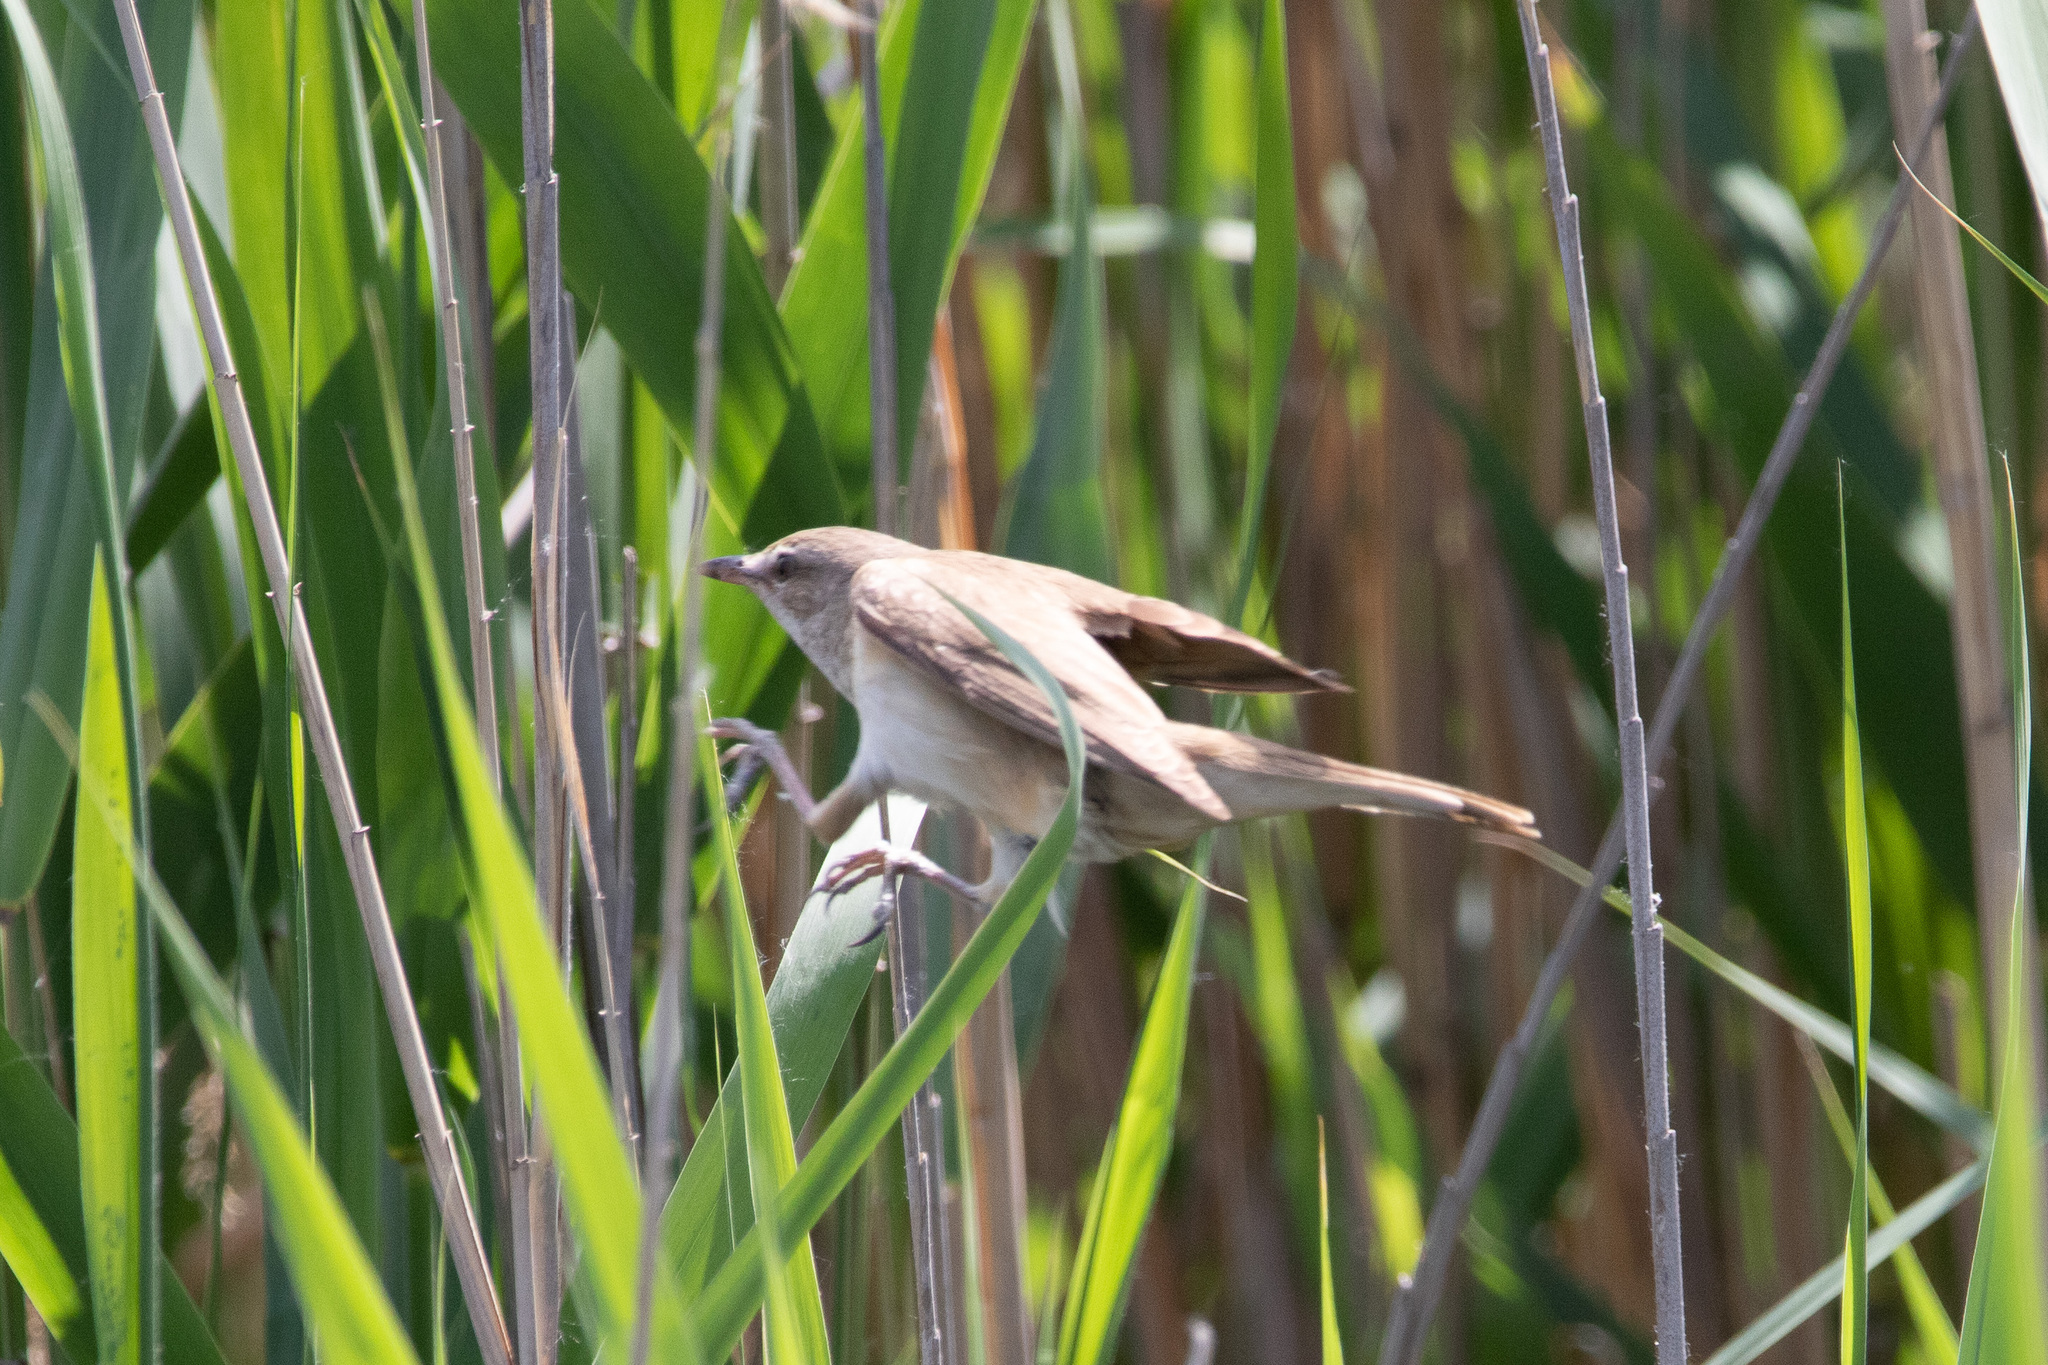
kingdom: Animalia
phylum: Chordata
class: Aves
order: Passeriformes
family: Acrocephalidae
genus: Acrocephalus
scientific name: Acrocephalus arundinaceus
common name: Great reed warbler
